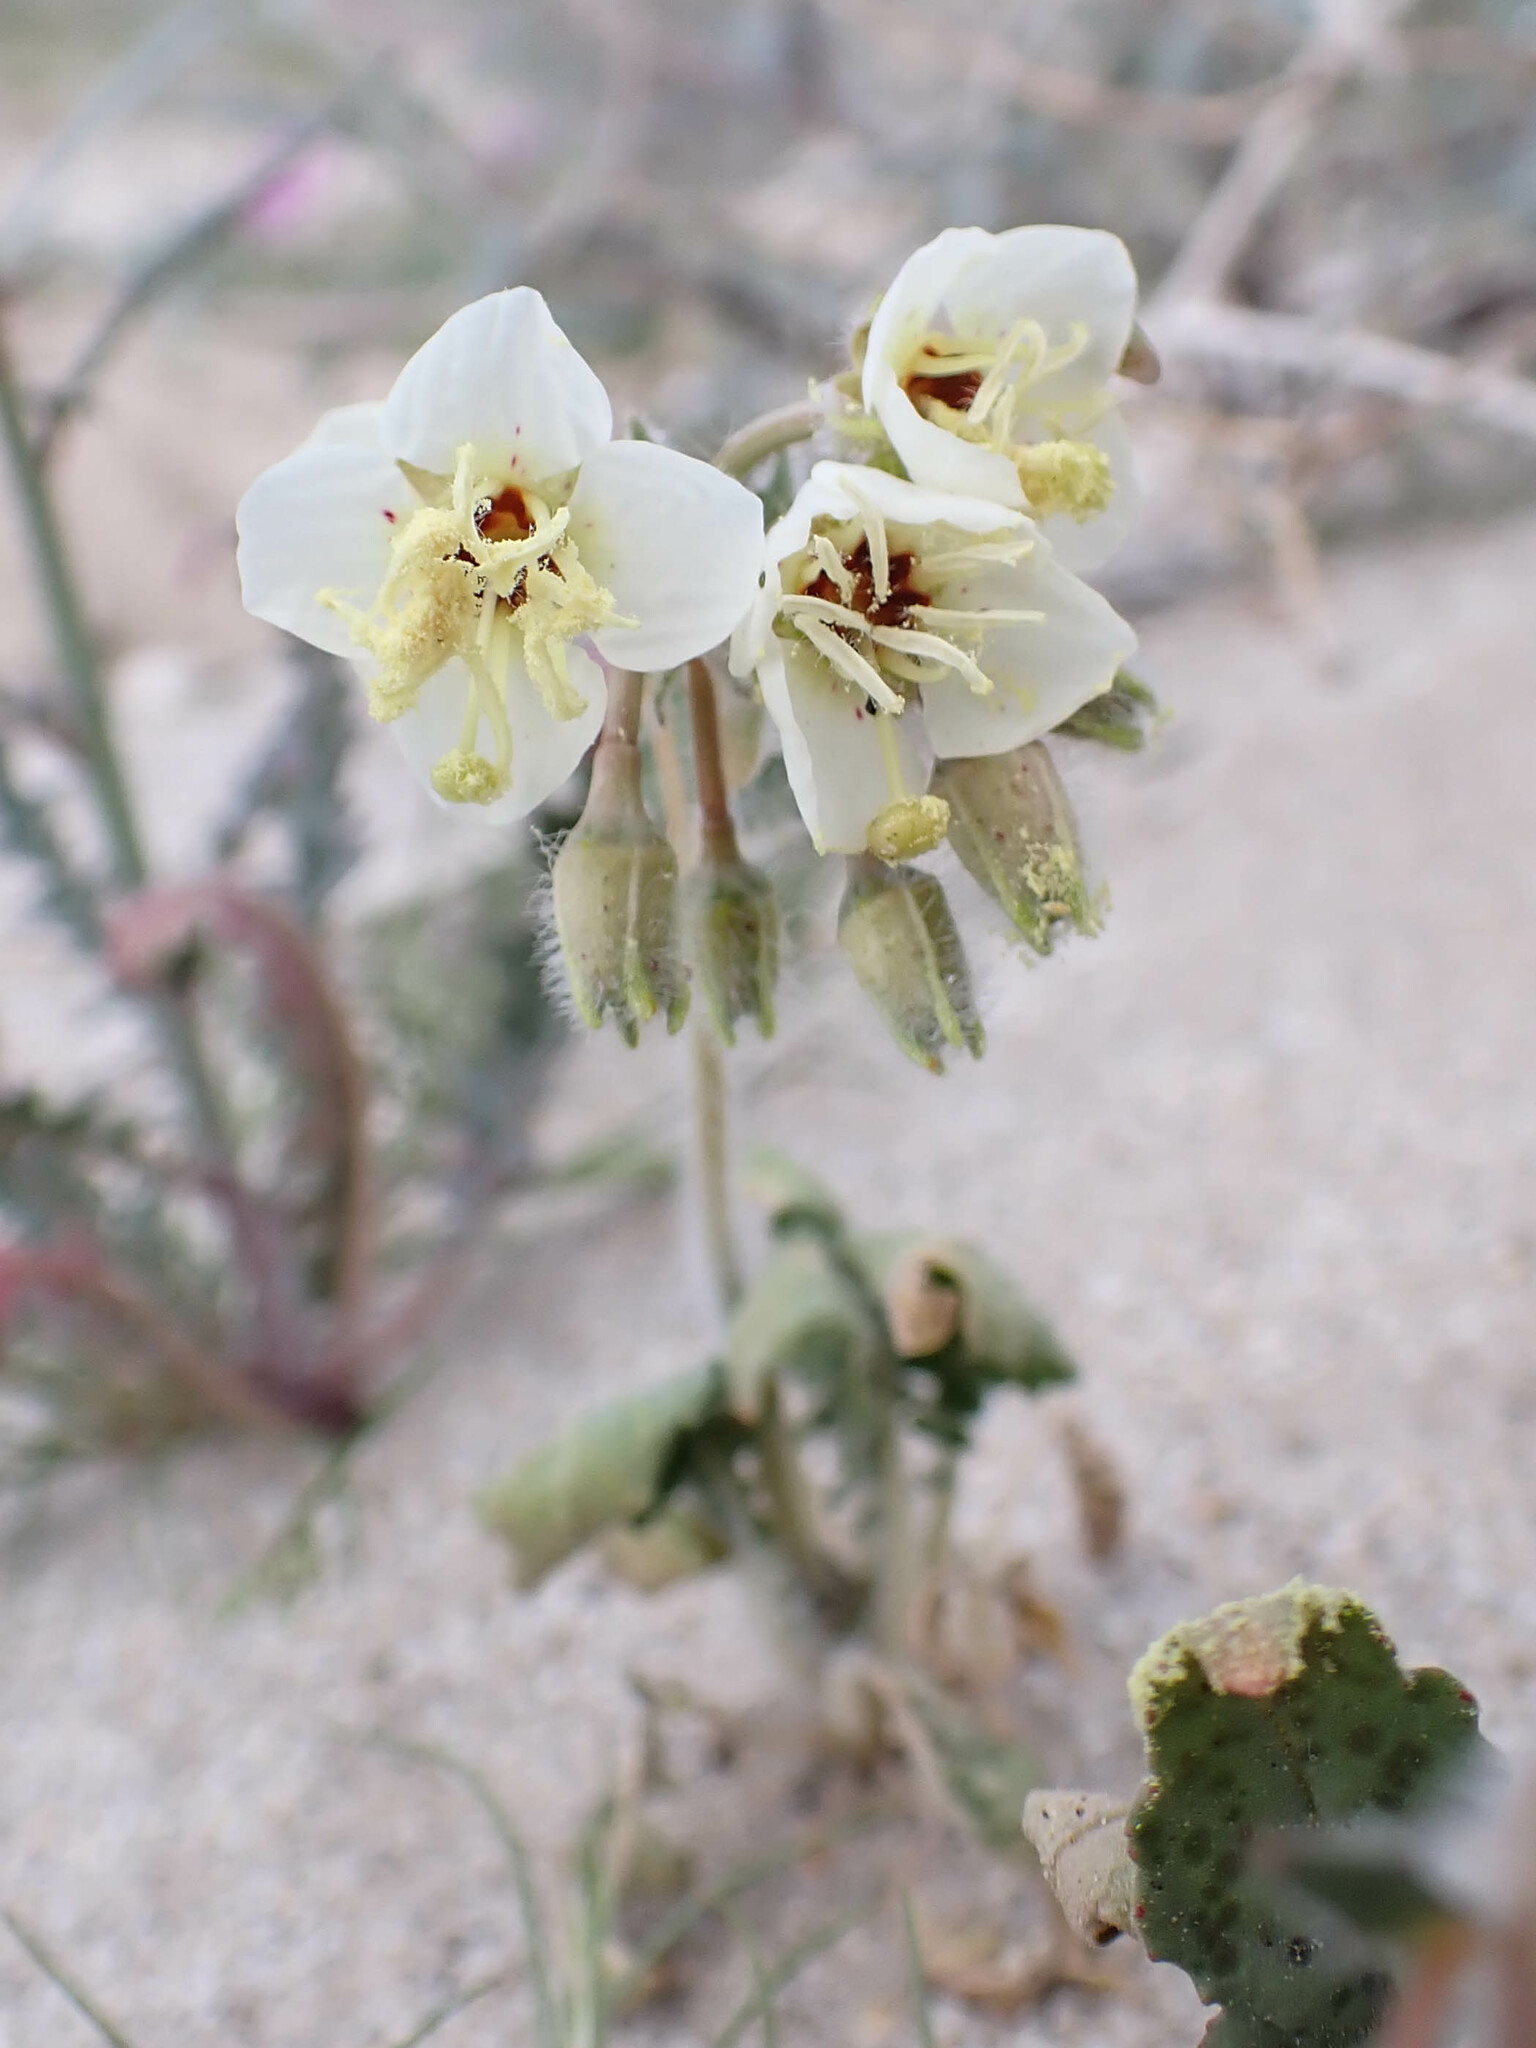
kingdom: Plantae
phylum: Tracheophyta
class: Magnoliopsida
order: Myrtales
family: Onagraceae
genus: Chylismia
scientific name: Chylismia claviformis
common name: Browneyes
